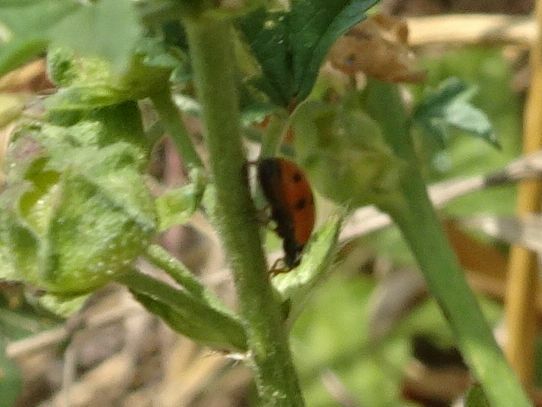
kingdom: Animalia
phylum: Arthropoda
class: Insecta
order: Coleoptera
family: Coccinellidae
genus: Hippodamia
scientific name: Hippodamia variegata
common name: Ladybird beetle
